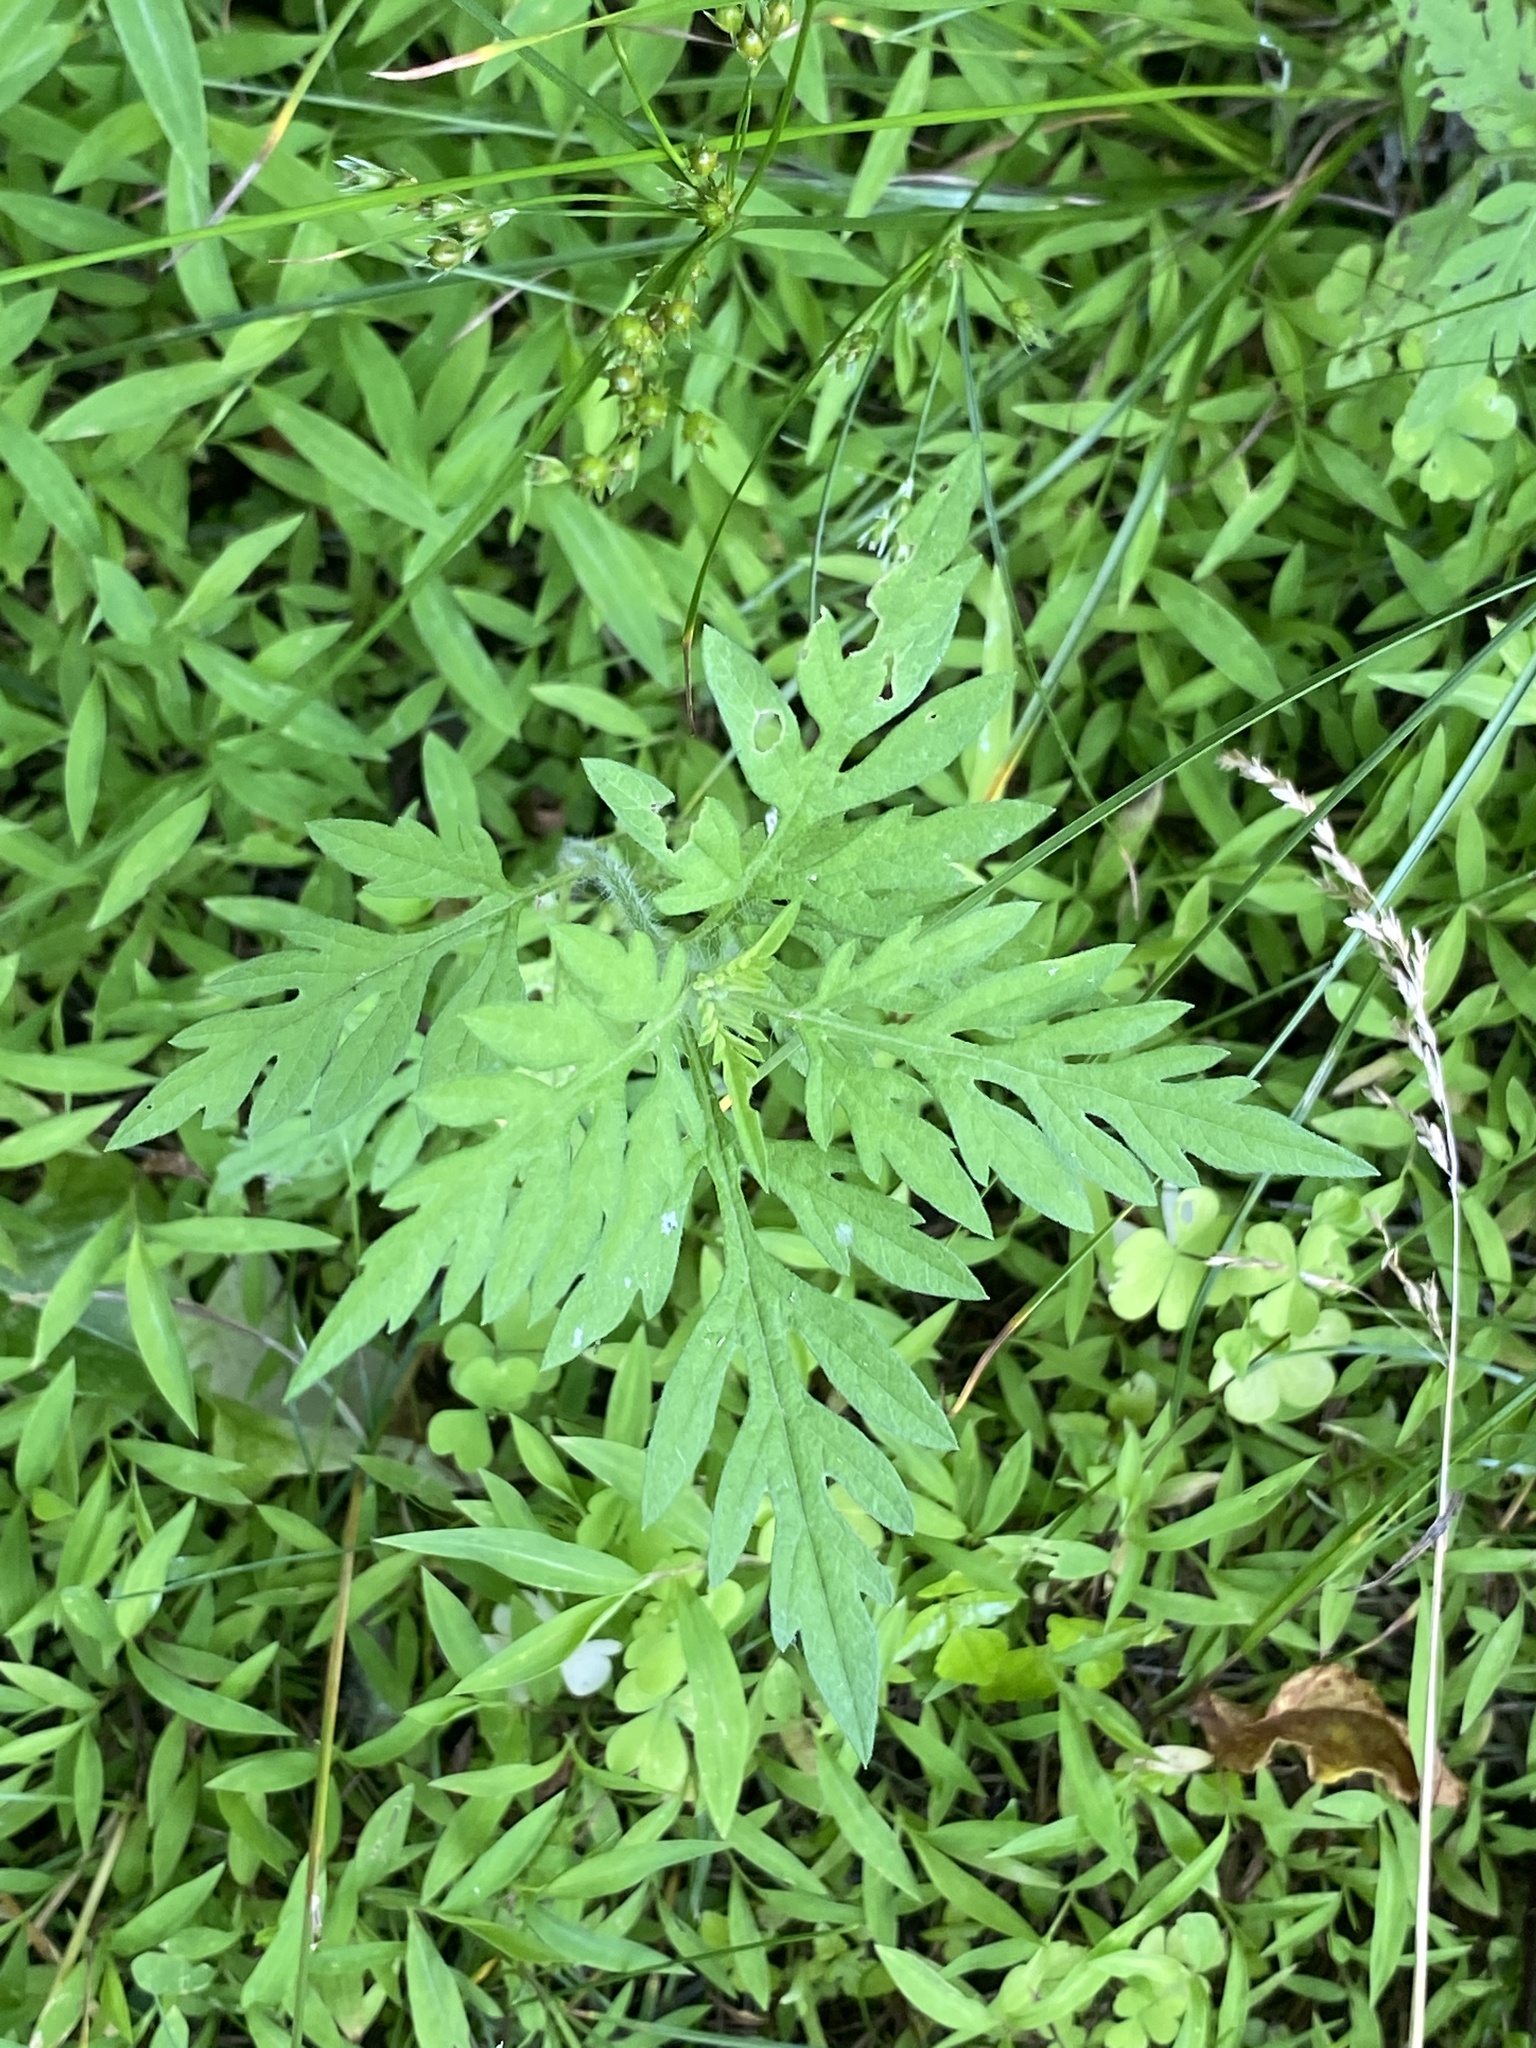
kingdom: Plantae
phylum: Tracheophyta
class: Magnoliopsida
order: Asterales
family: Asteraceae
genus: Ambrosia
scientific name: Ambrosia artemisiifolia
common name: Annual ragweed
